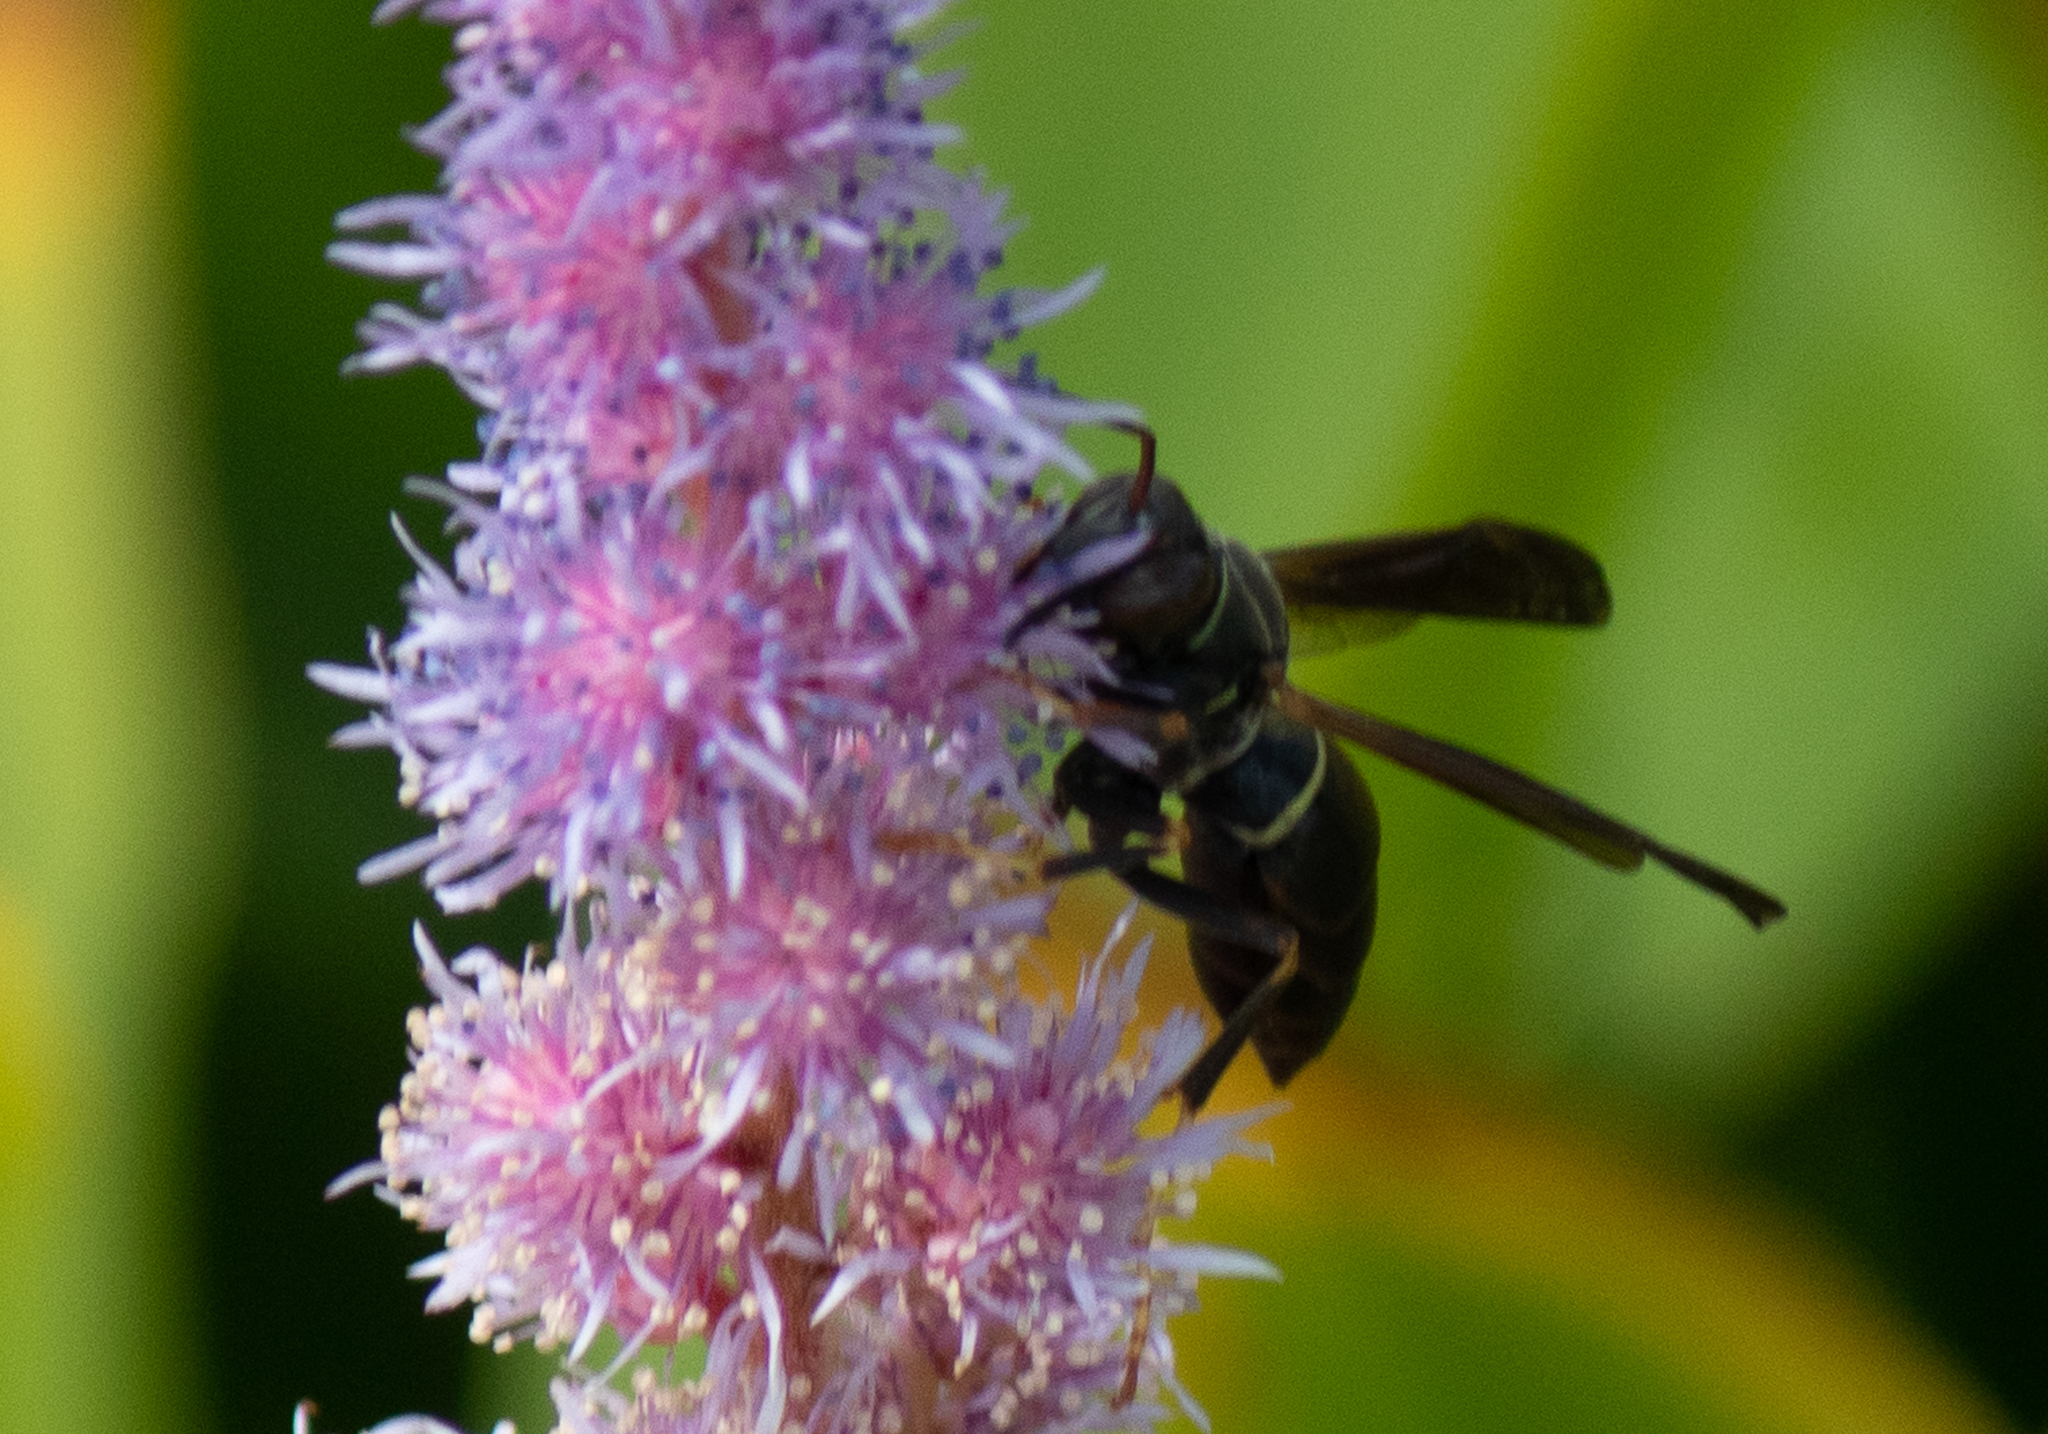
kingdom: Animalia
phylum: Arthropoda
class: Insecta
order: Hymenoptera
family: Eumenidae
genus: Polistes
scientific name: Polistes fuscatus
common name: Dark paper wasp
